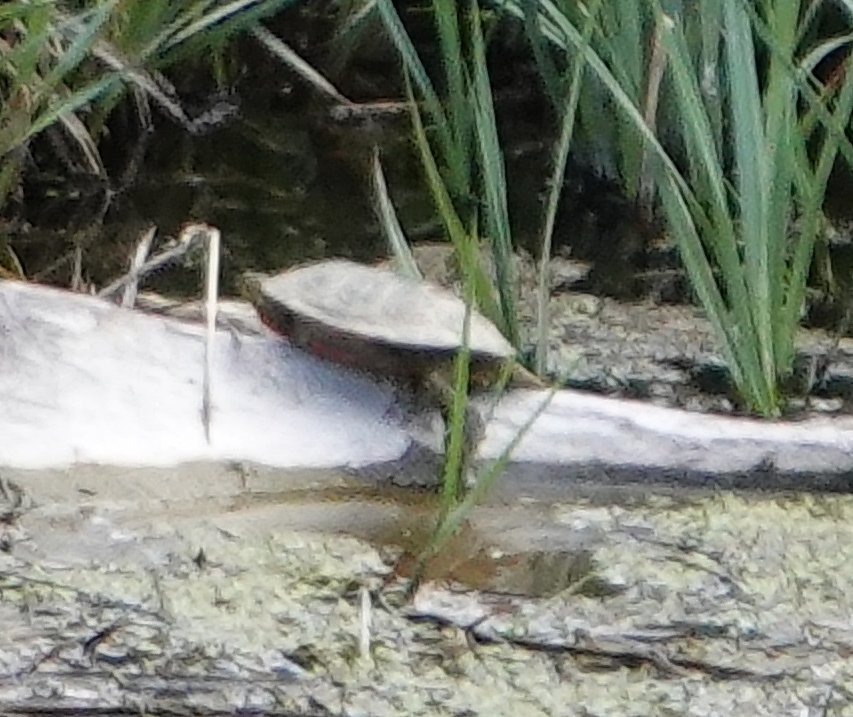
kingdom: Animalia
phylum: Chordata
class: Testudines
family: Emydidae
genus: Chrysemys
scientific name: Chrysemys picta
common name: Painted turtle
